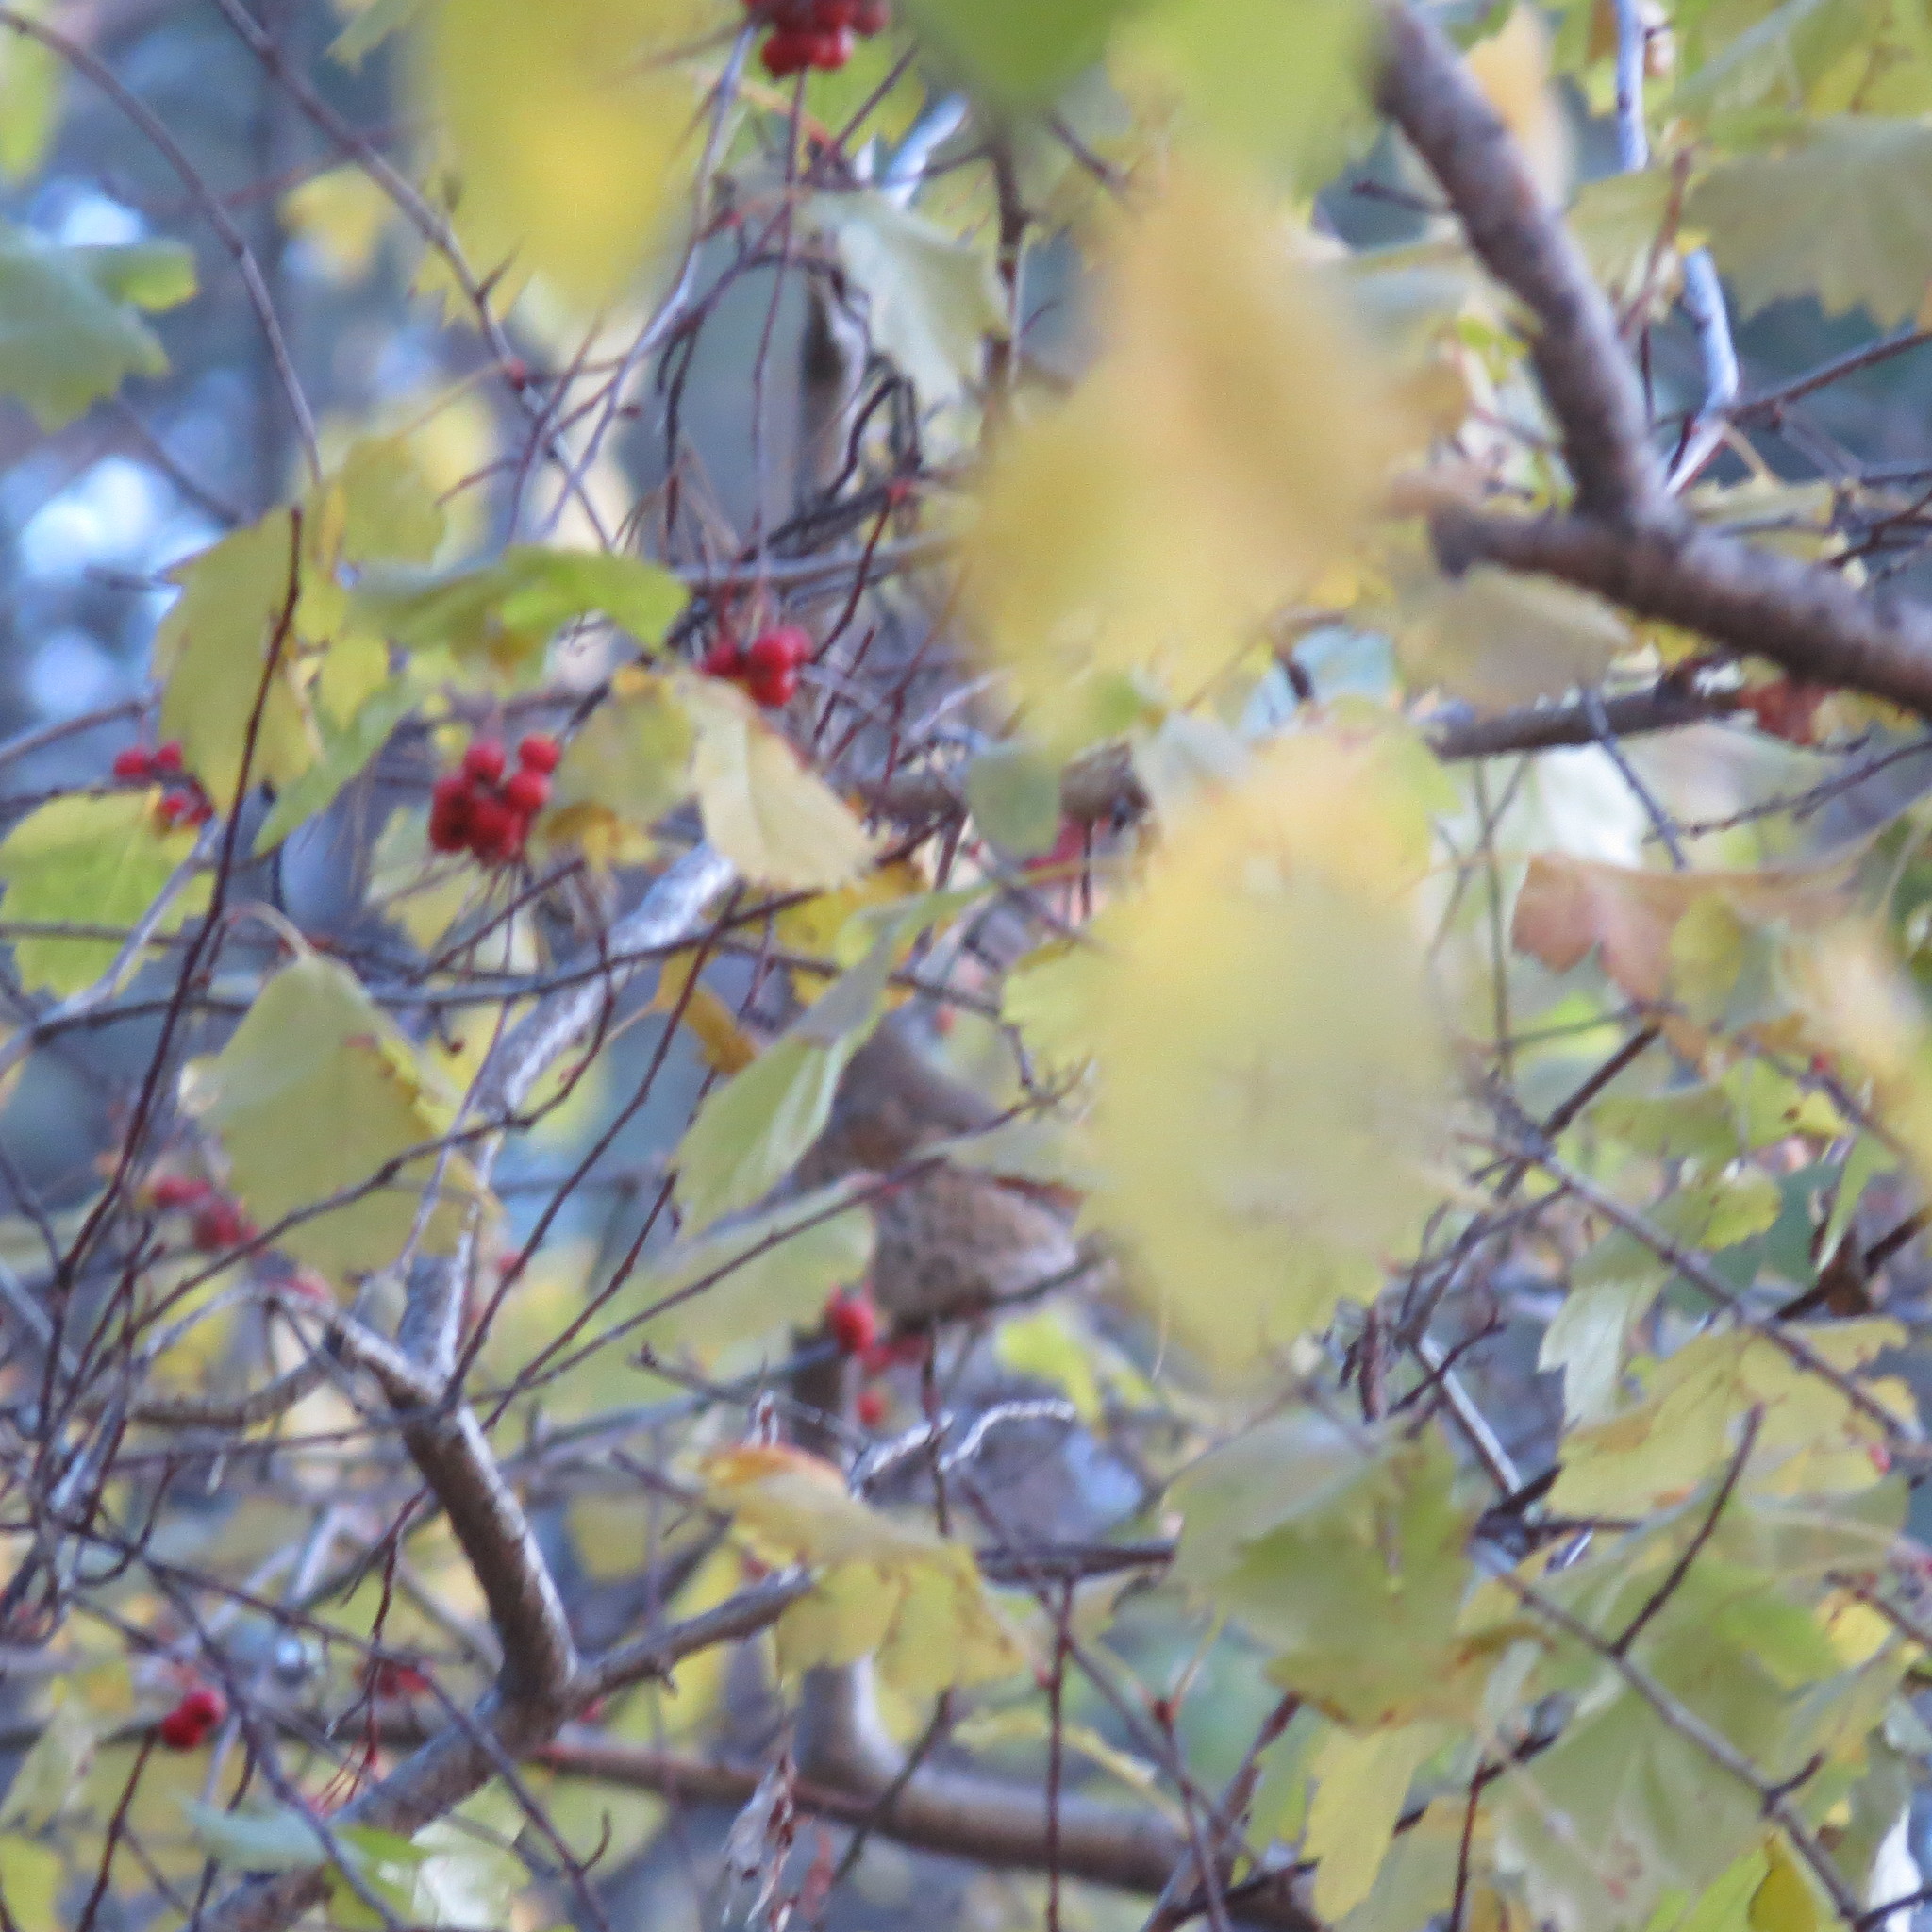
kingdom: Animalia
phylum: Chordata
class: Aves
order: Passeriformes
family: Turdidae
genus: Turdus
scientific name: Turdus
